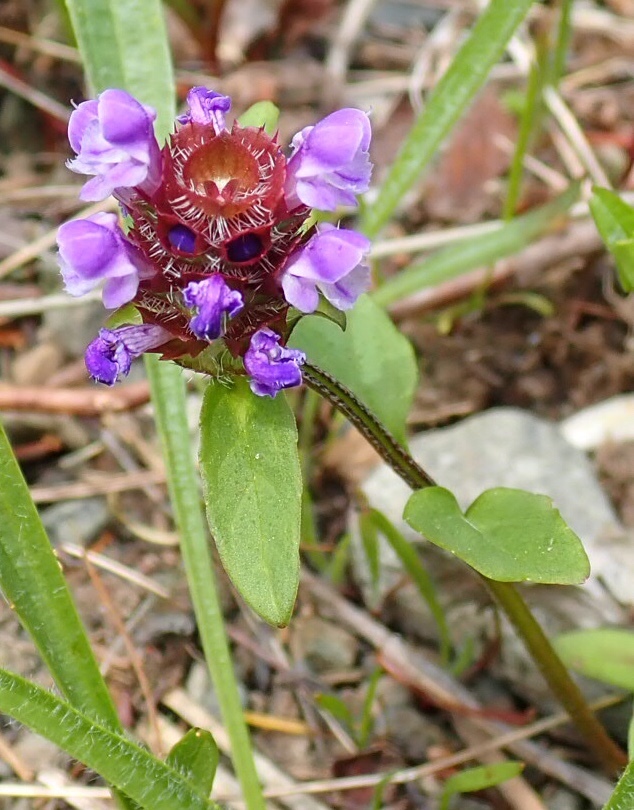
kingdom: Plantae
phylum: Tracheophyta
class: Magnoliopsida
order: Lamiales
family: Lamiaceae
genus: Prunella
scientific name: Prunella vulgaris
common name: Heal-all
